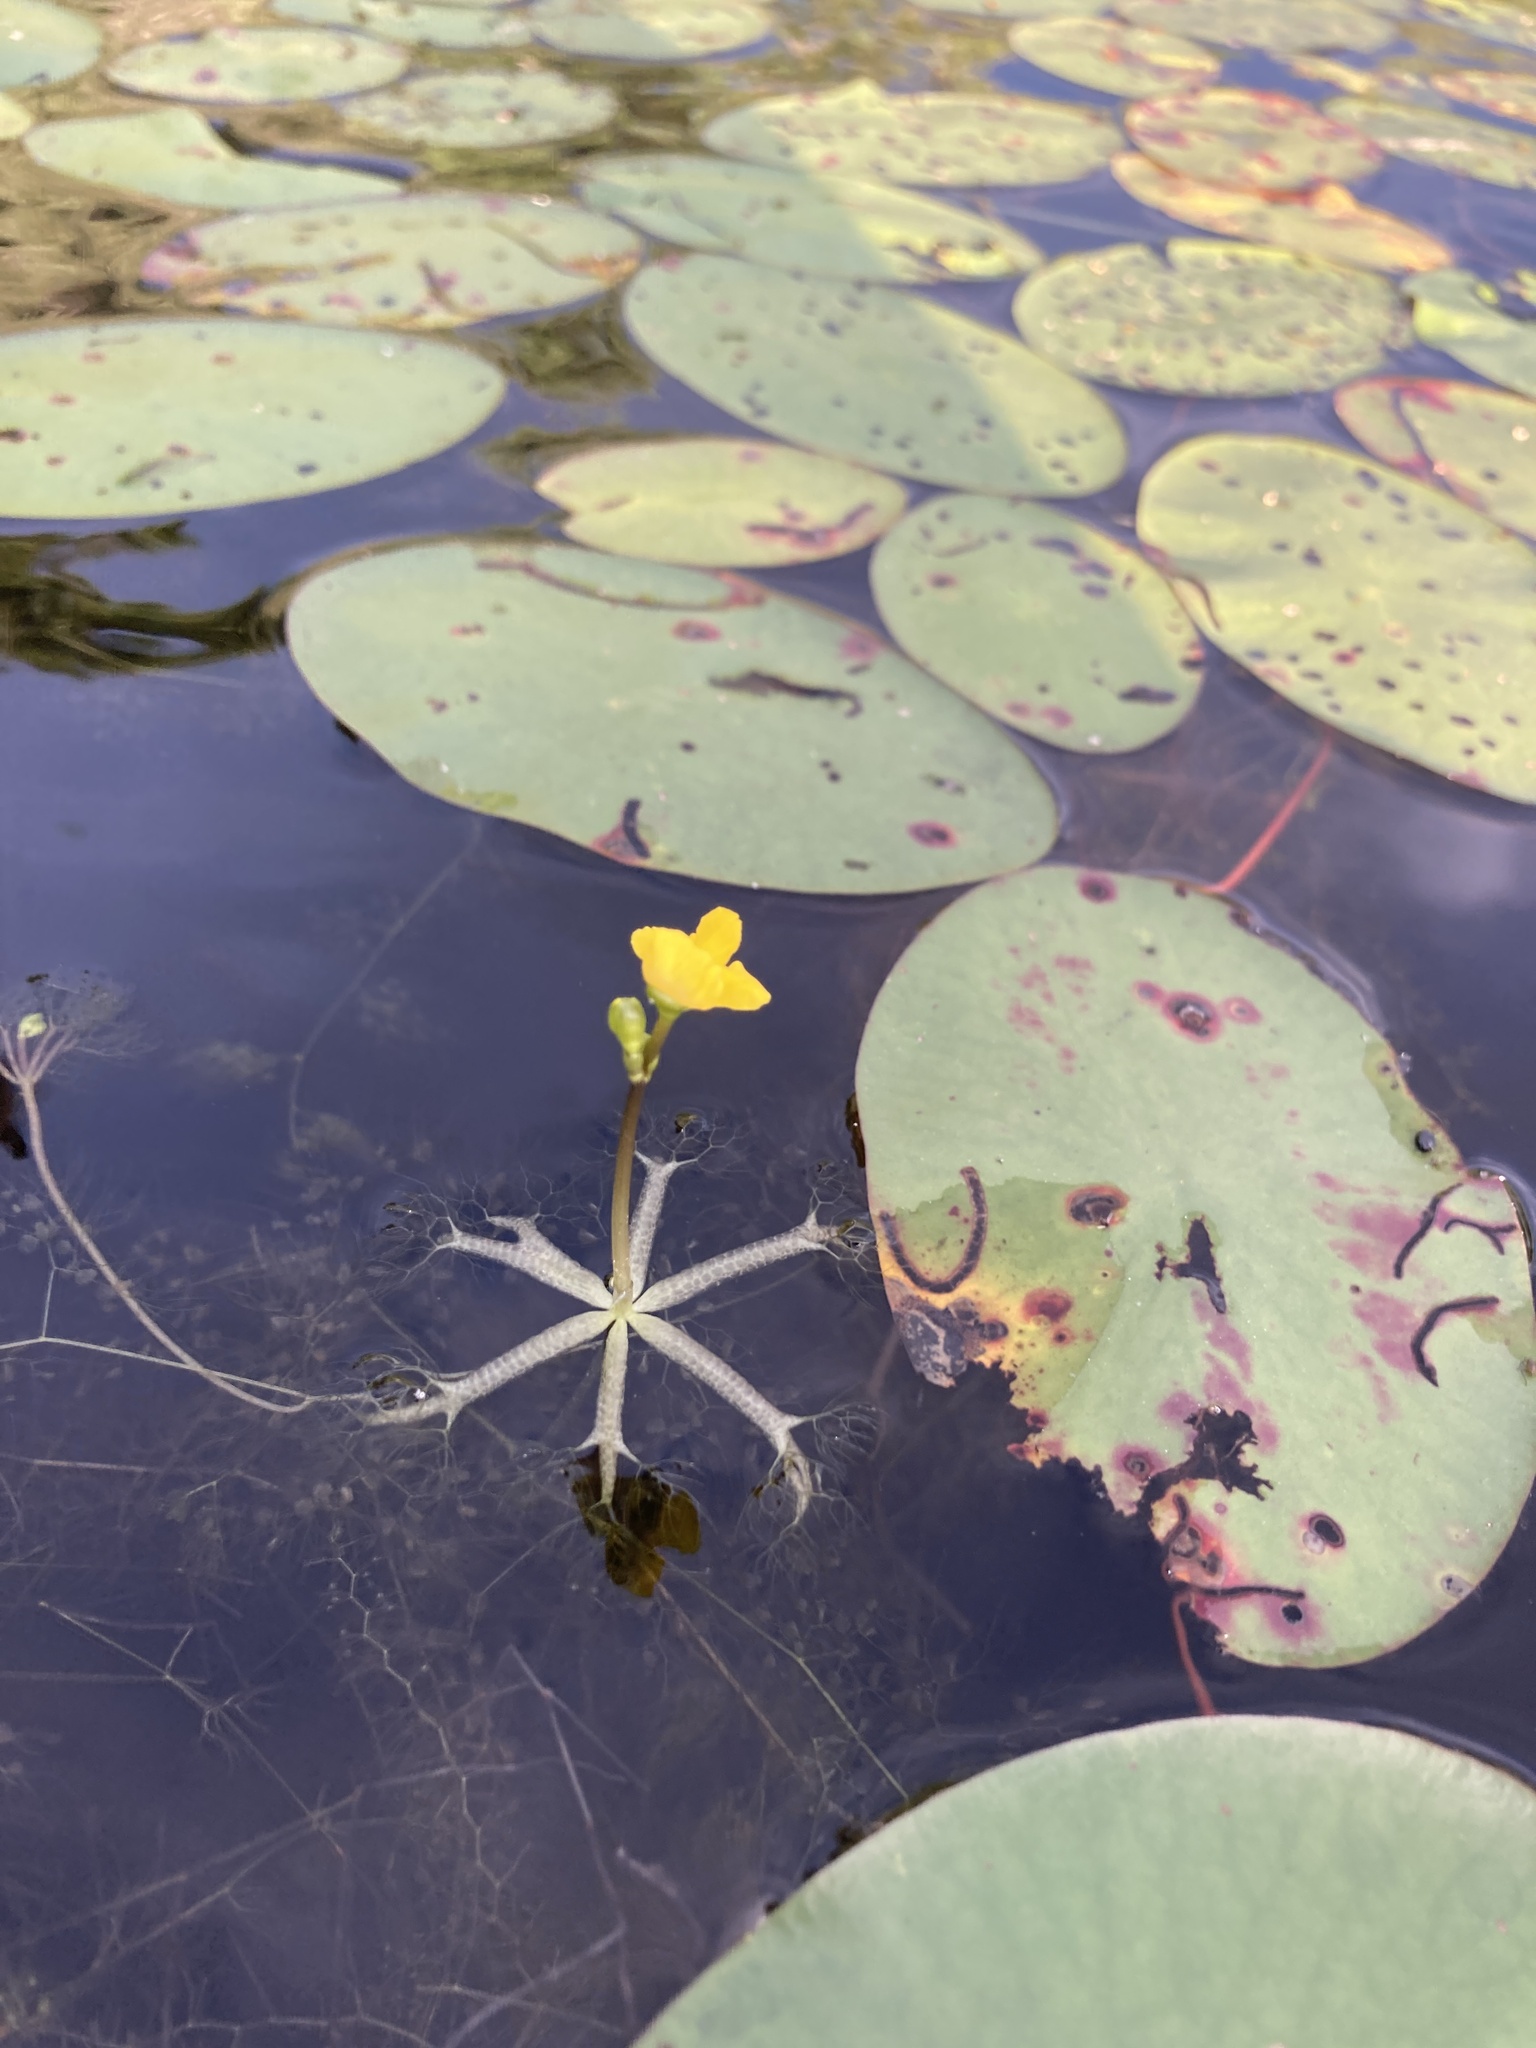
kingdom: Plantae
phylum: Tracheophyta
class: Magnoliopsida
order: Lamiales
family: Lentibulariaceae
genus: Utricularia
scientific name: Utricularia radiata
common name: Floating bladderwort
